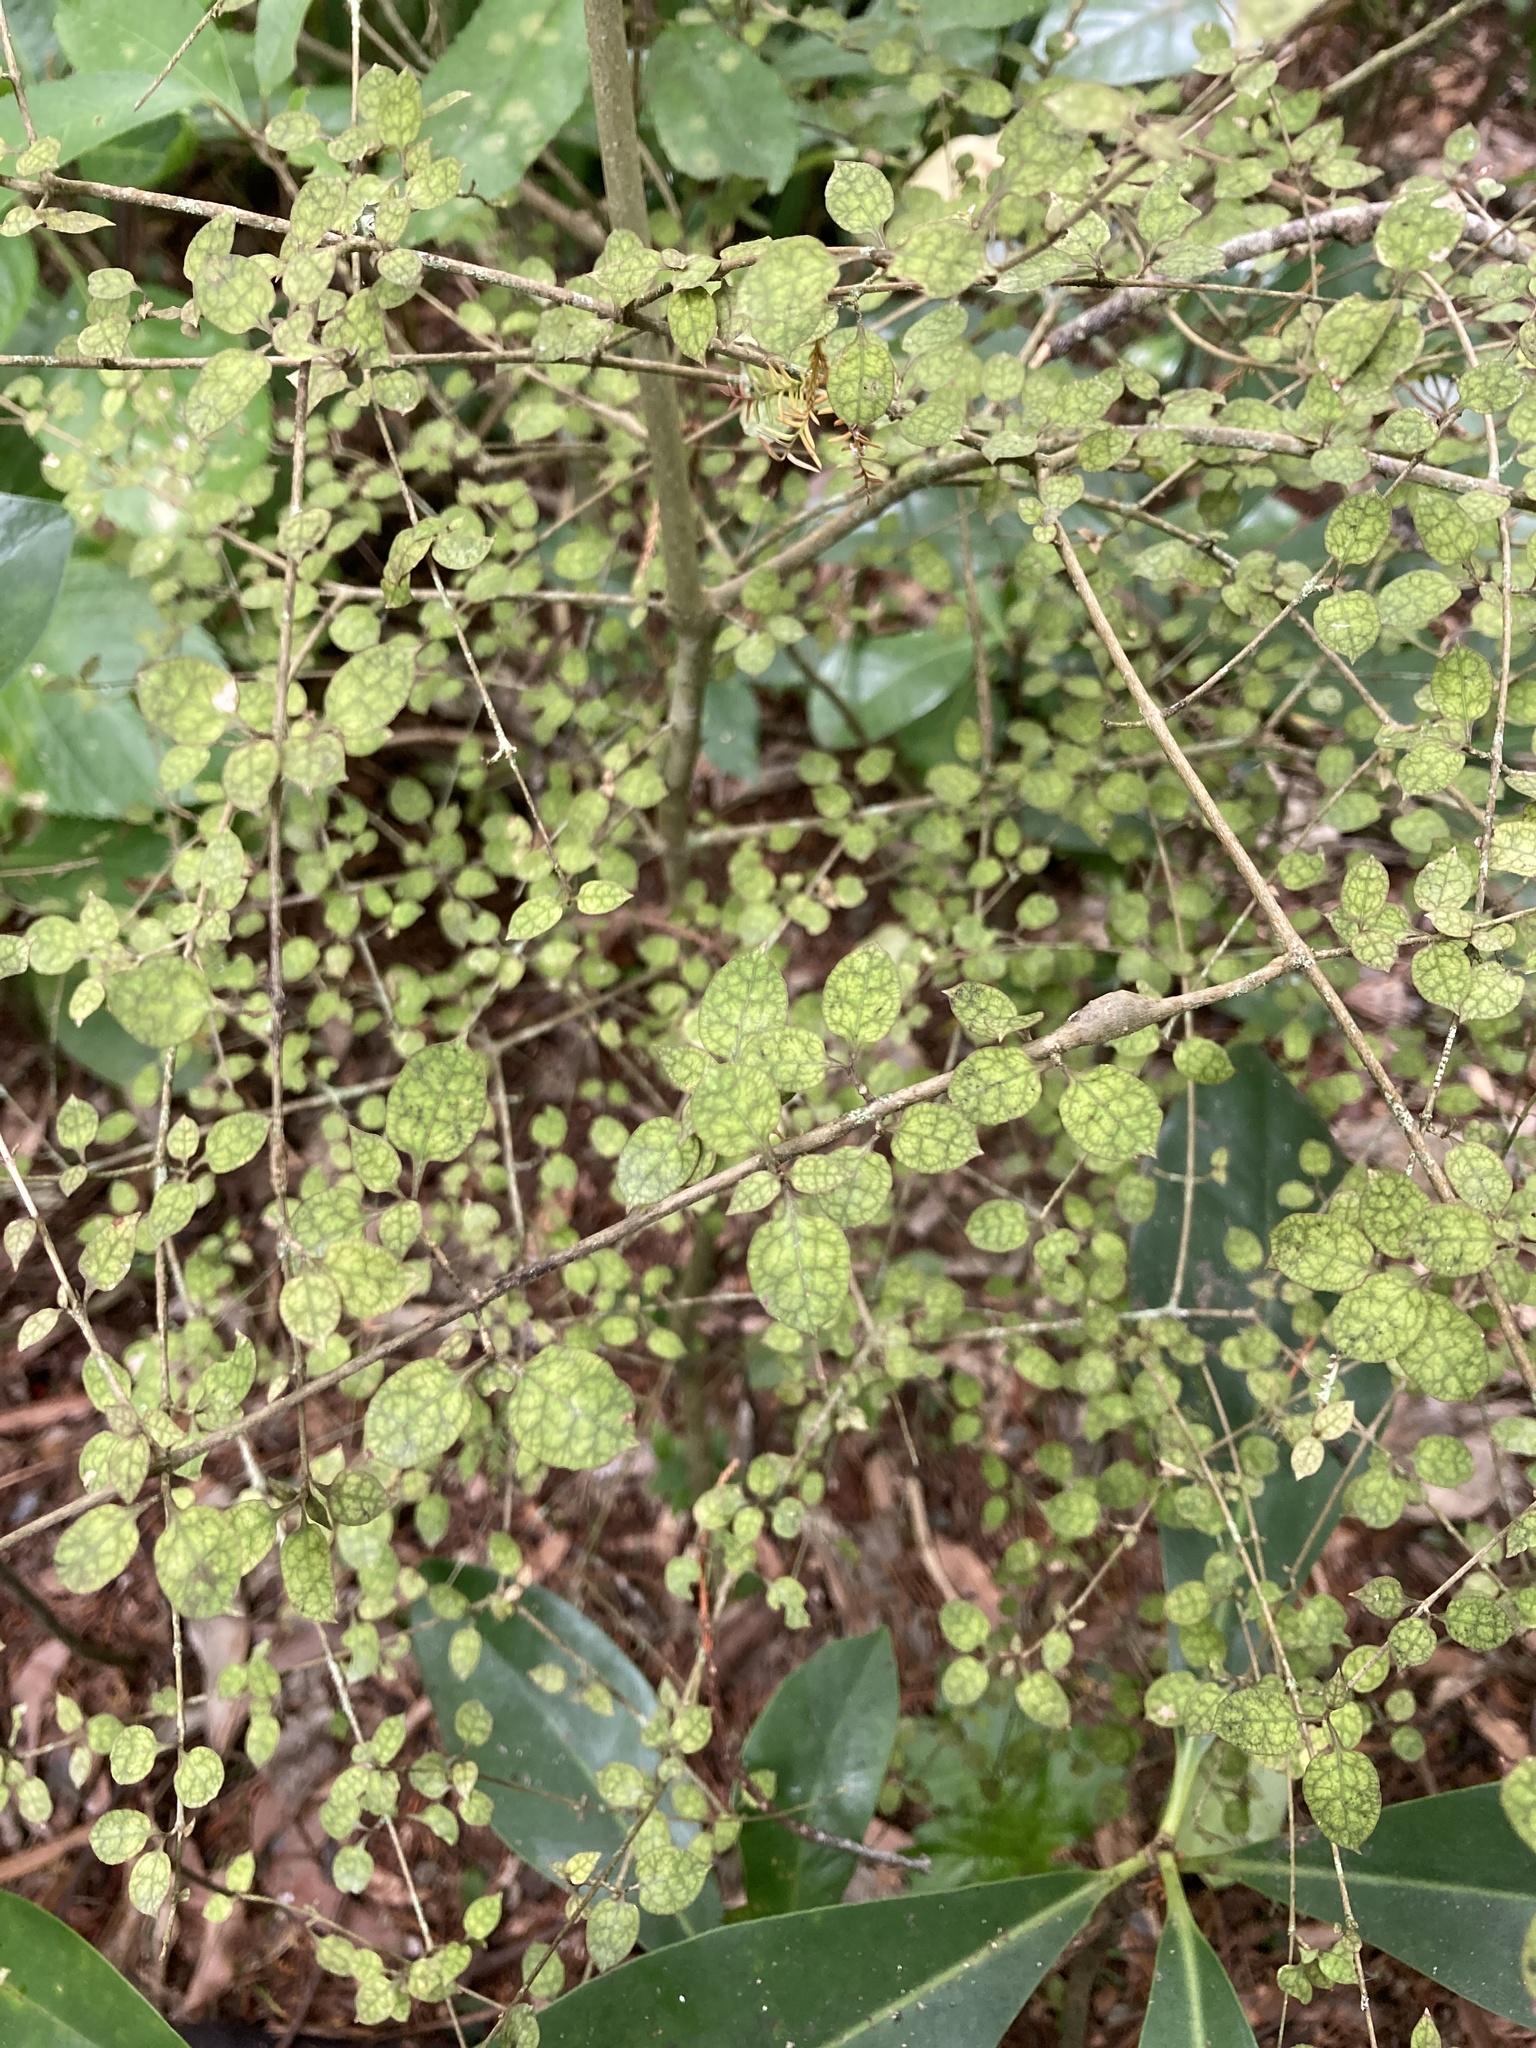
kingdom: Plantae
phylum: Tracheophyta
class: Magnoliopsida
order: Gentianales
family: Rubiaceae
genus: Coprosma
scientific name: Coprosma areolata
